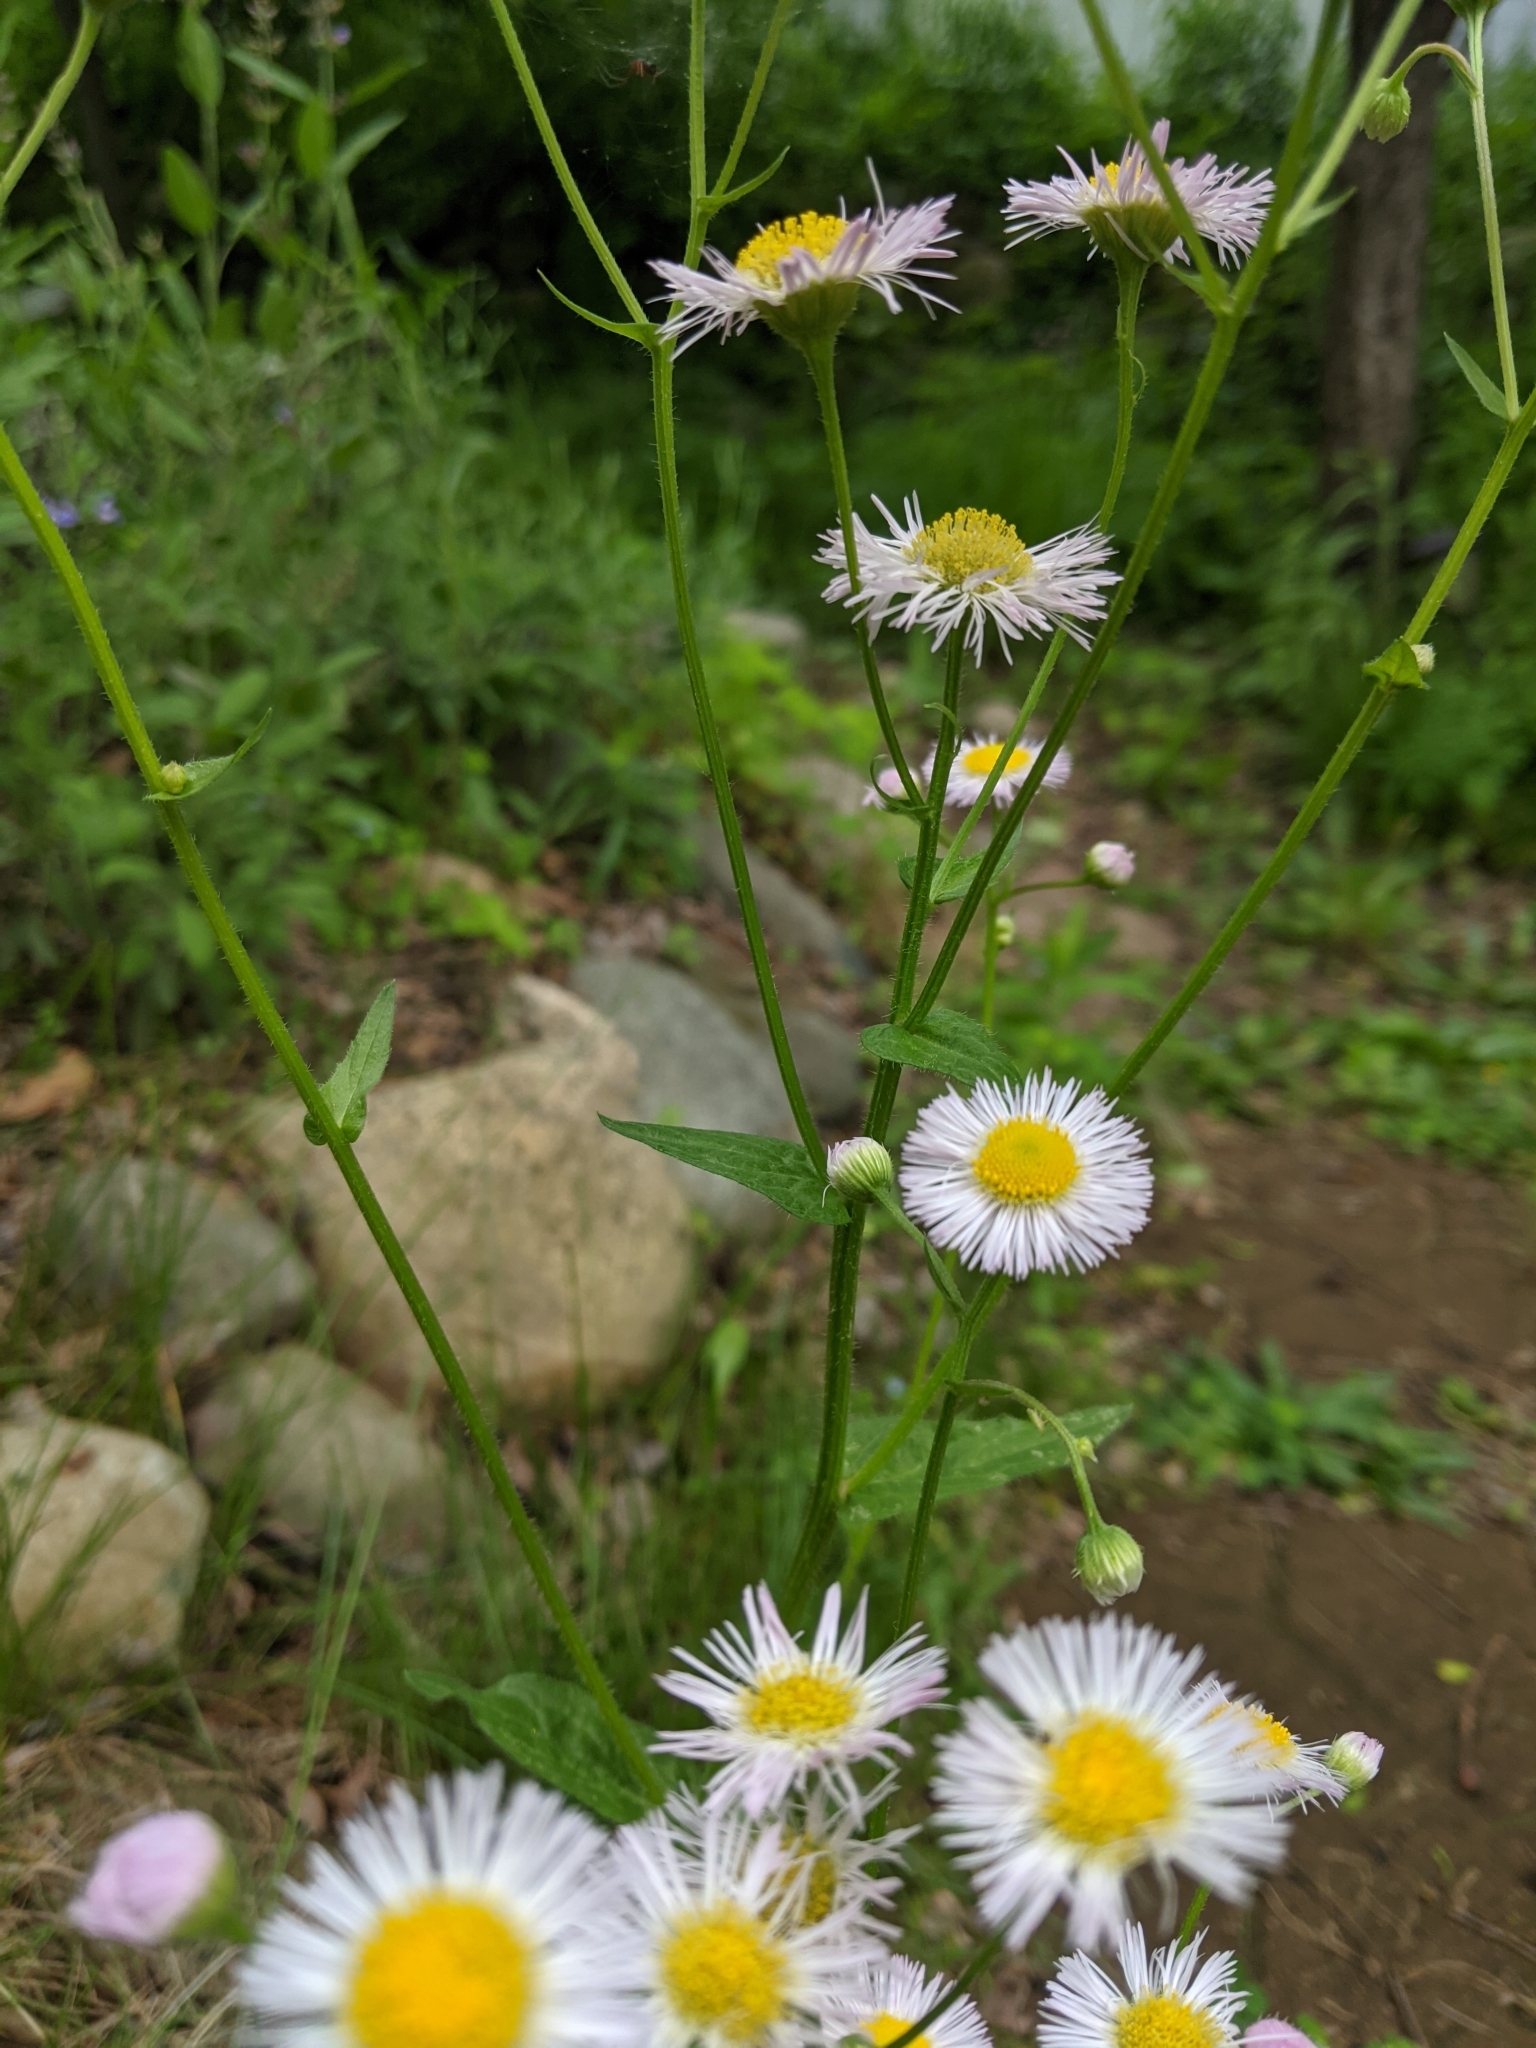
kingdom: Plantae
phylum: Tracheophyta
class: Magnoliopsida
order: Asterales
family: Asteraceae
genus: Erigeron
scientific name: Erigeron philadelphicus
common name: Robin's-plantain
